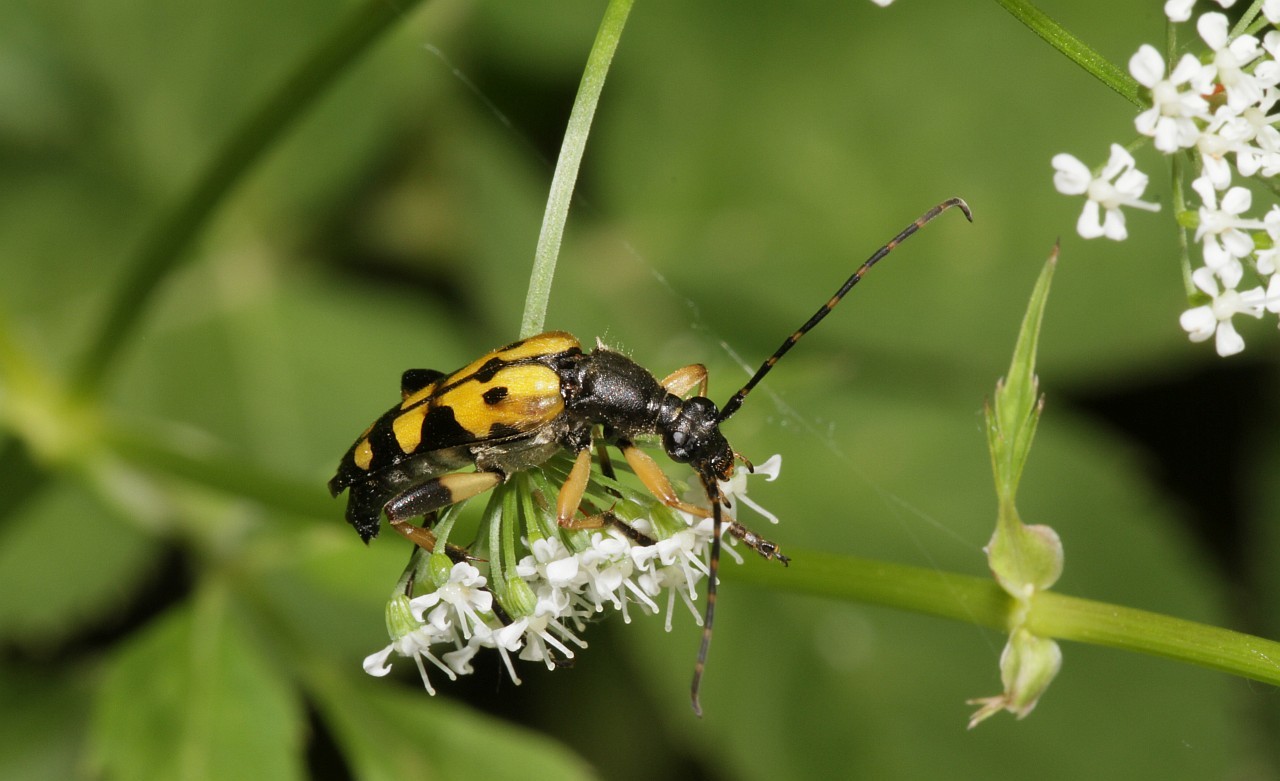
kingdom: Animalia
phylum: Arthropoda
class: Insecta
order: Coleoptera
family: Cerambycidae
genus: Rutpela
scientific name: Rutpela maculata
